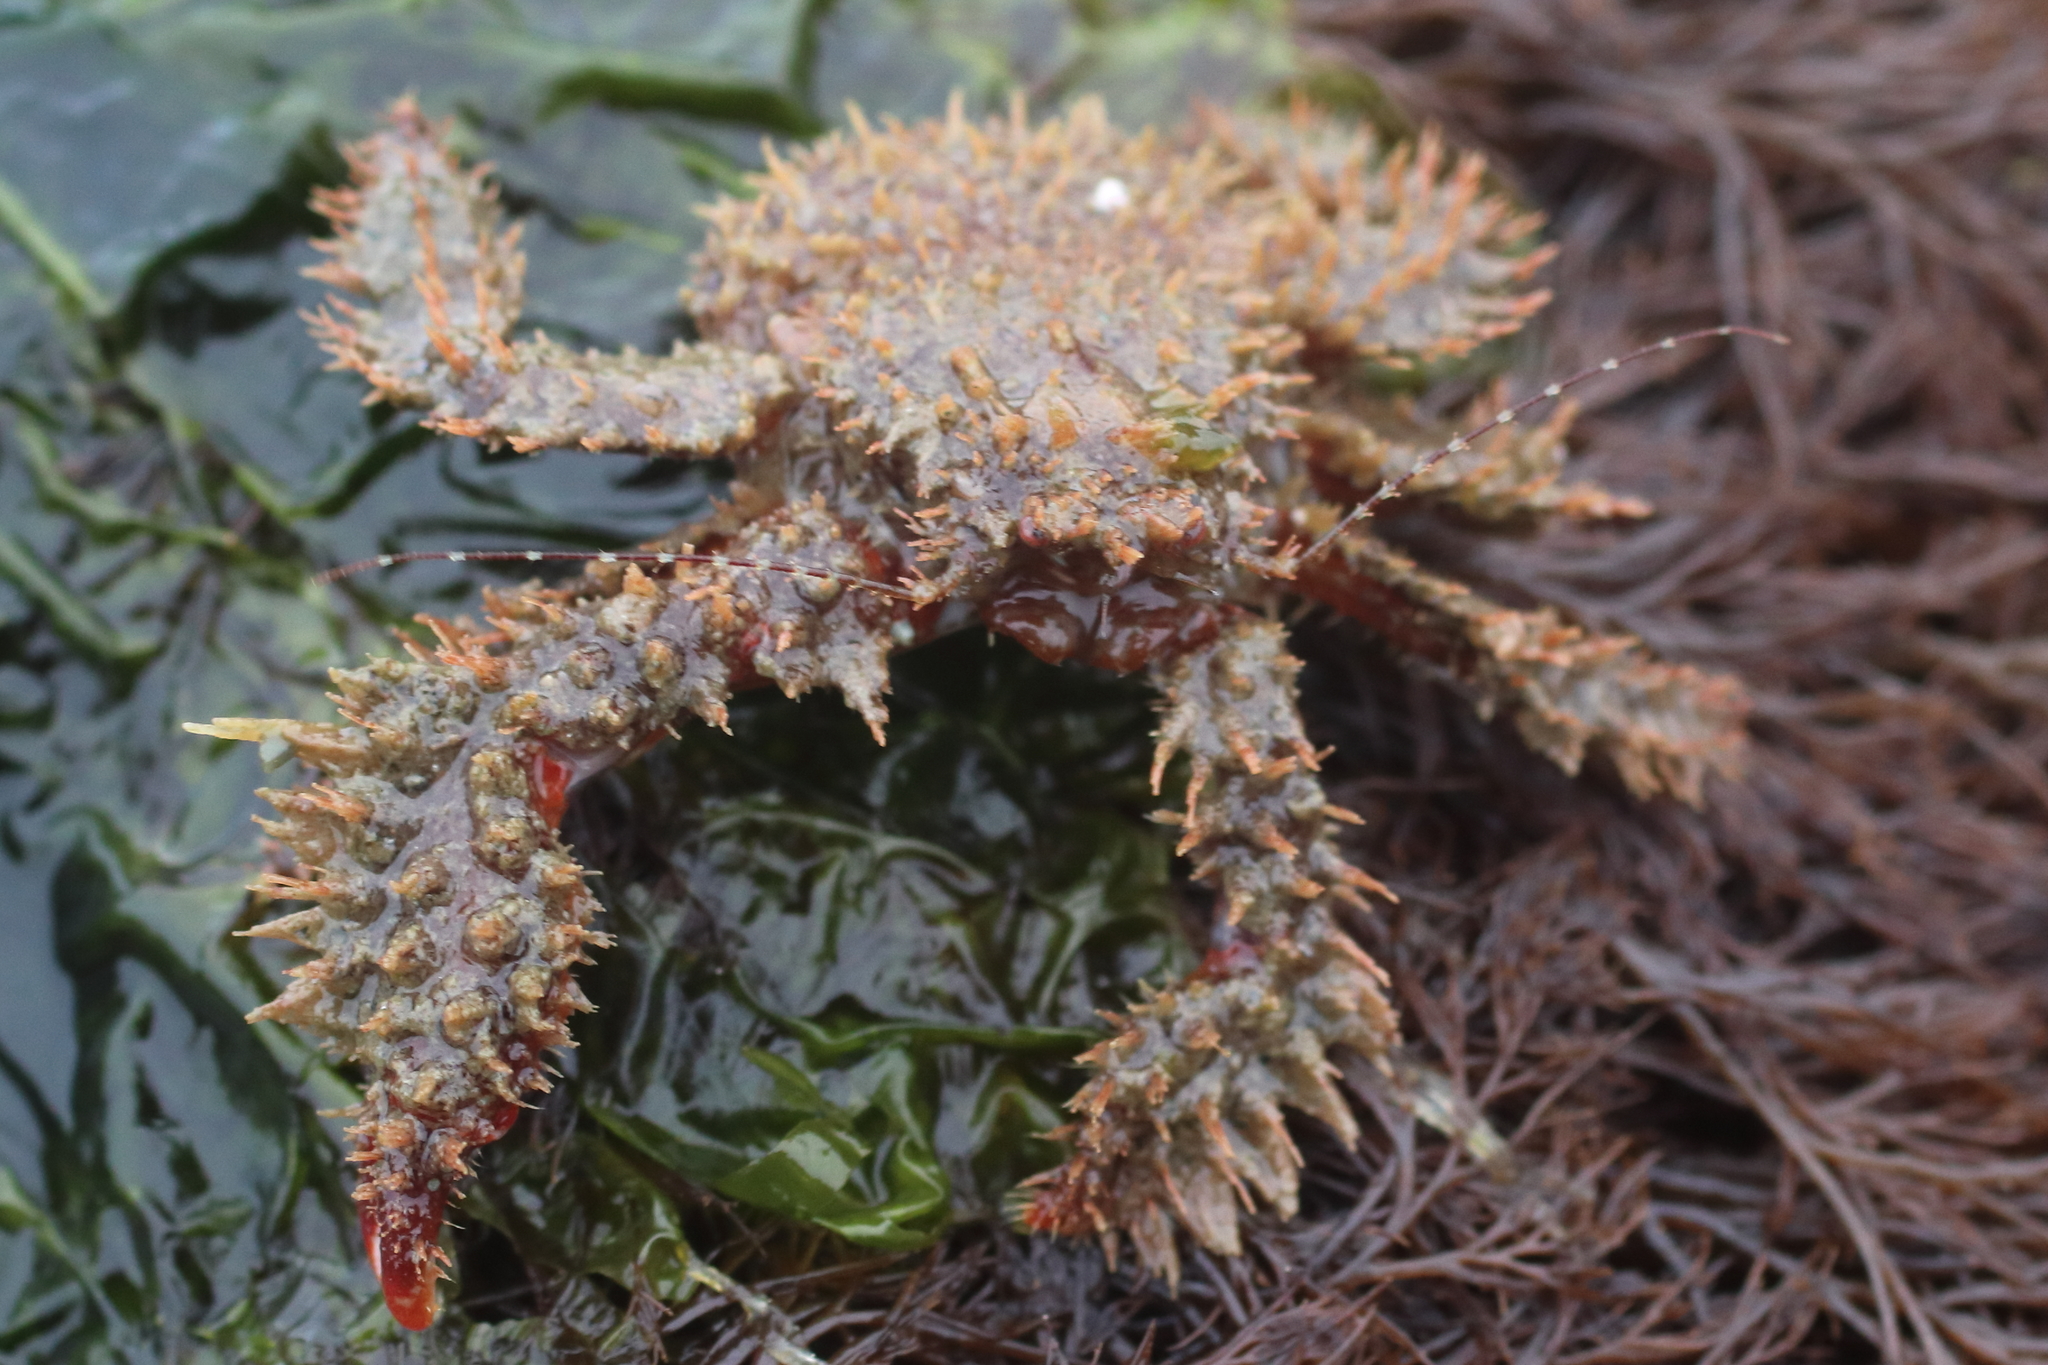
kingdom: Animalia
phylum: Arthropoda
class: Malacostraca
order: Decapoda
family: Hapalogastridae
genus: Hapalogaster
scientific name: Hapalogaster mertensii
